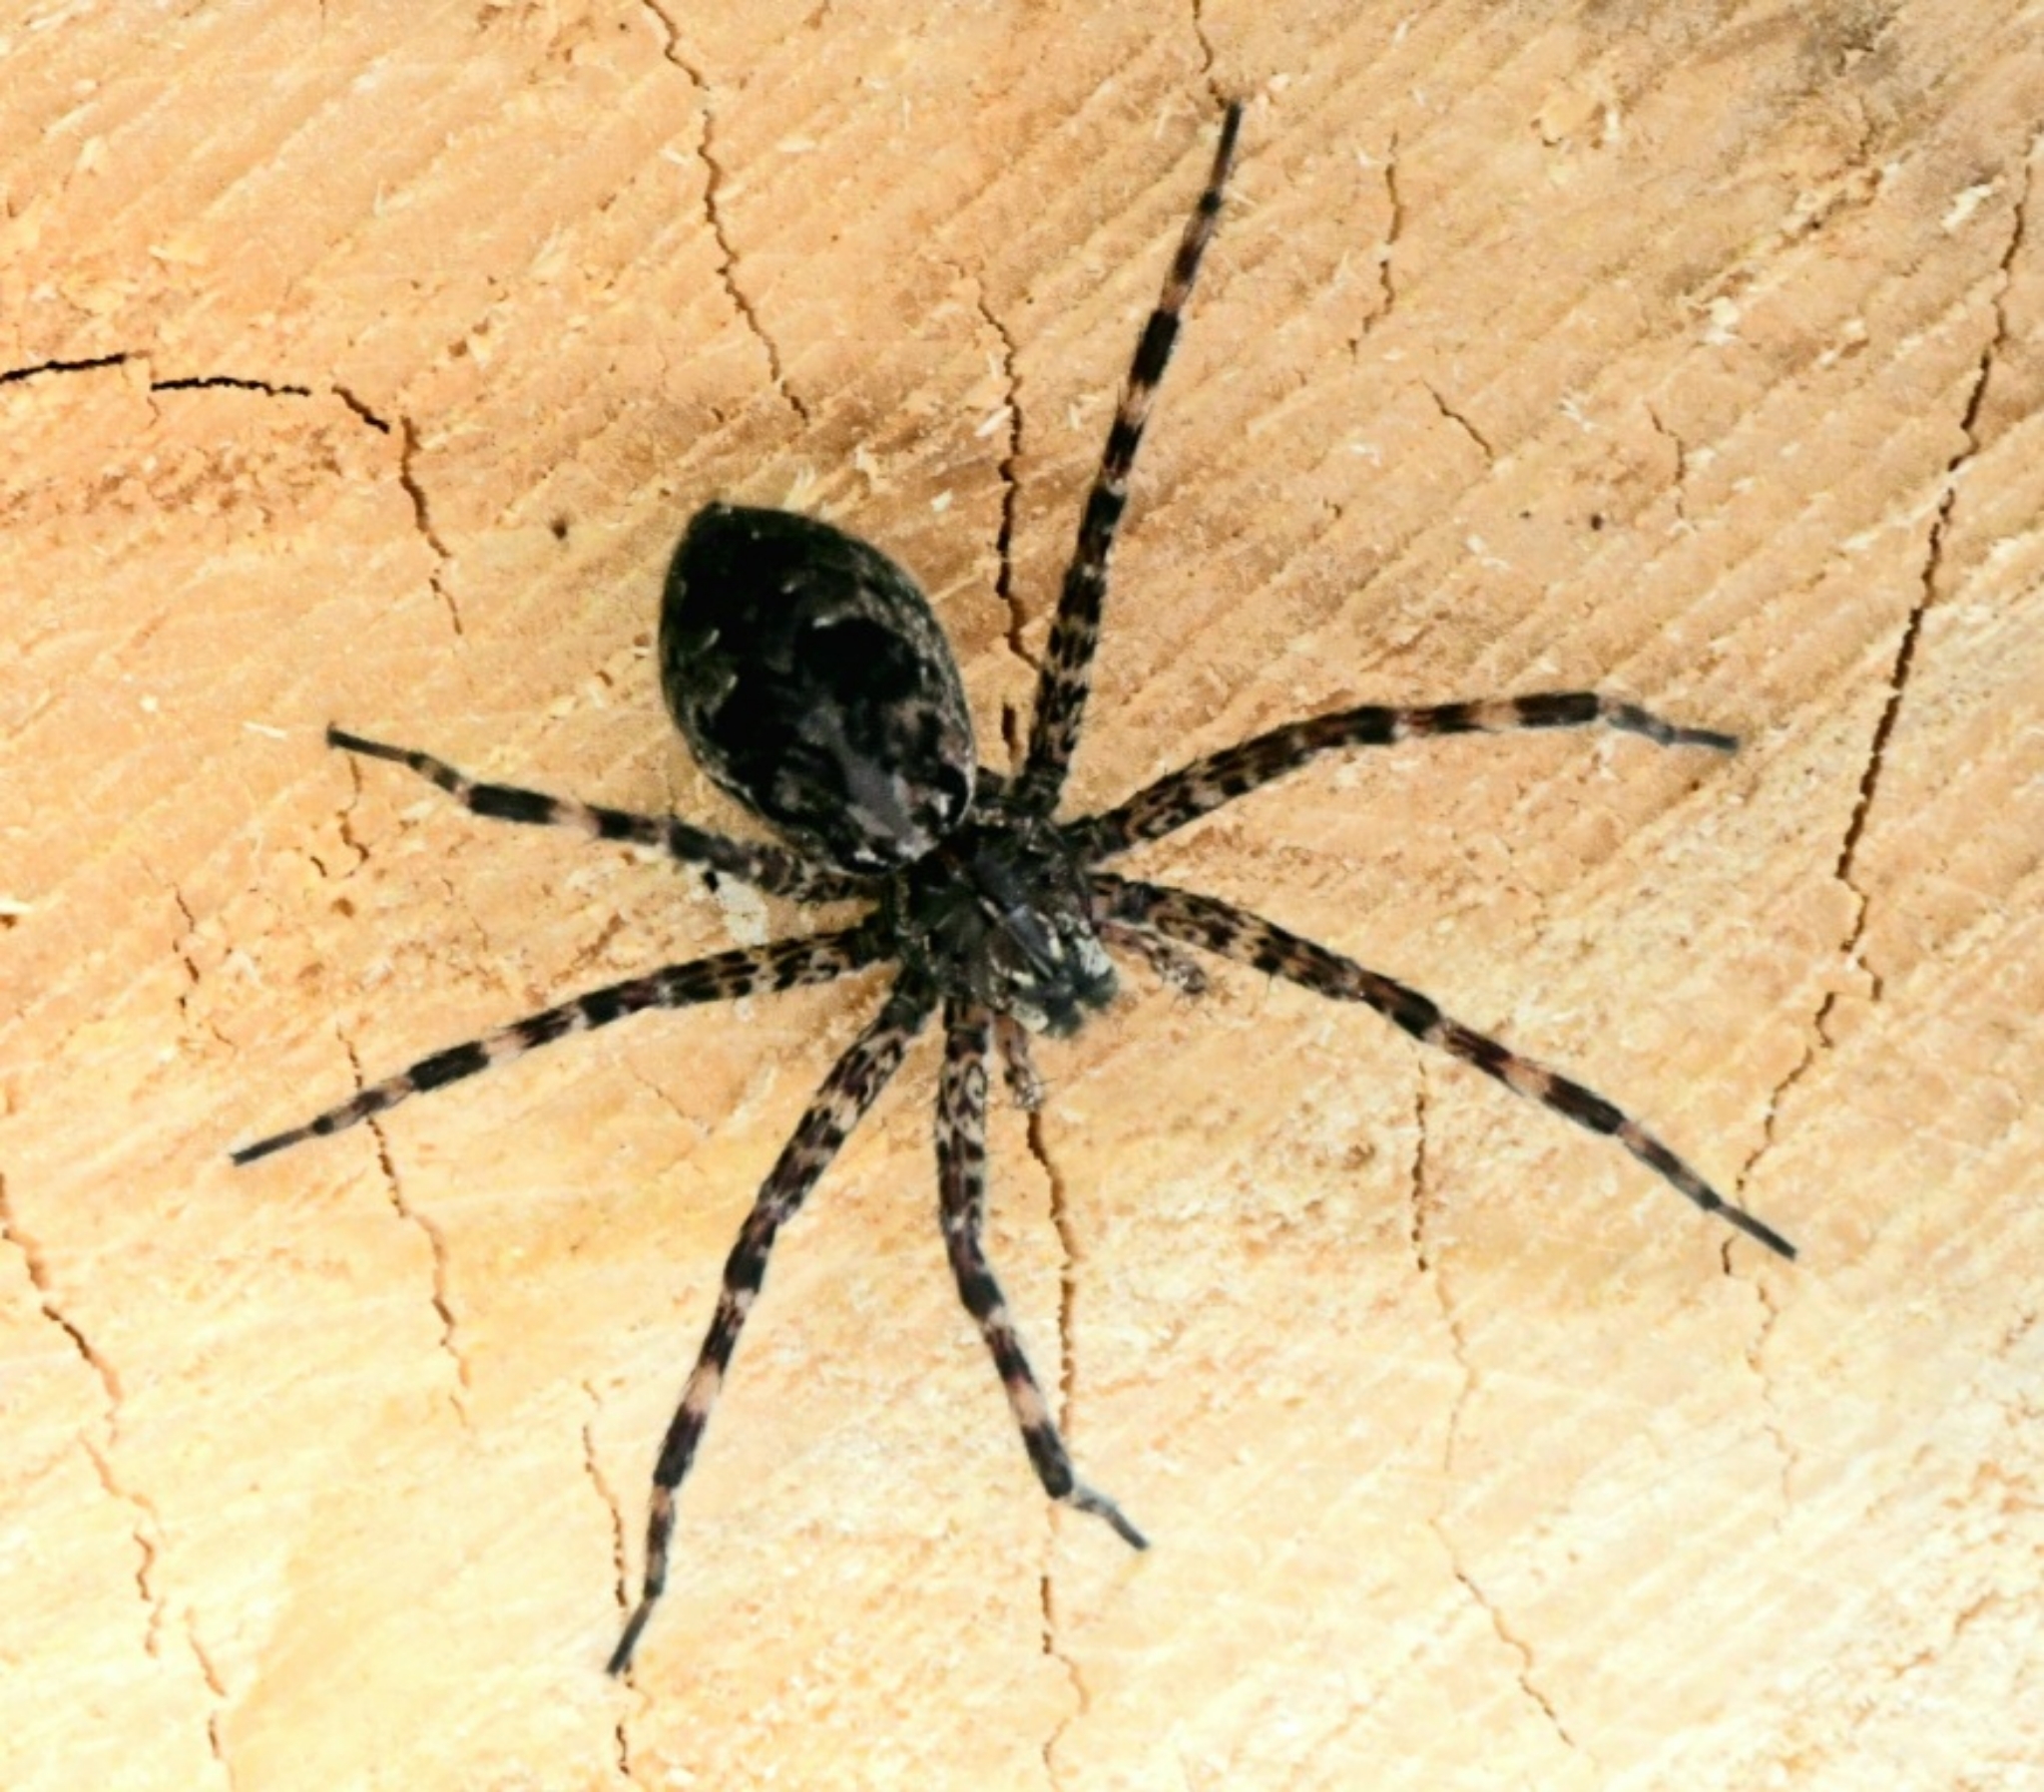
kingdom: Animalia
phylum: Arthropoda
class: Arachnida
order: Araneae
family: Pisauridae
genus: Dolomedes
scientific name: Dolomedes tenebrosus
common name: Dark fishing spider
